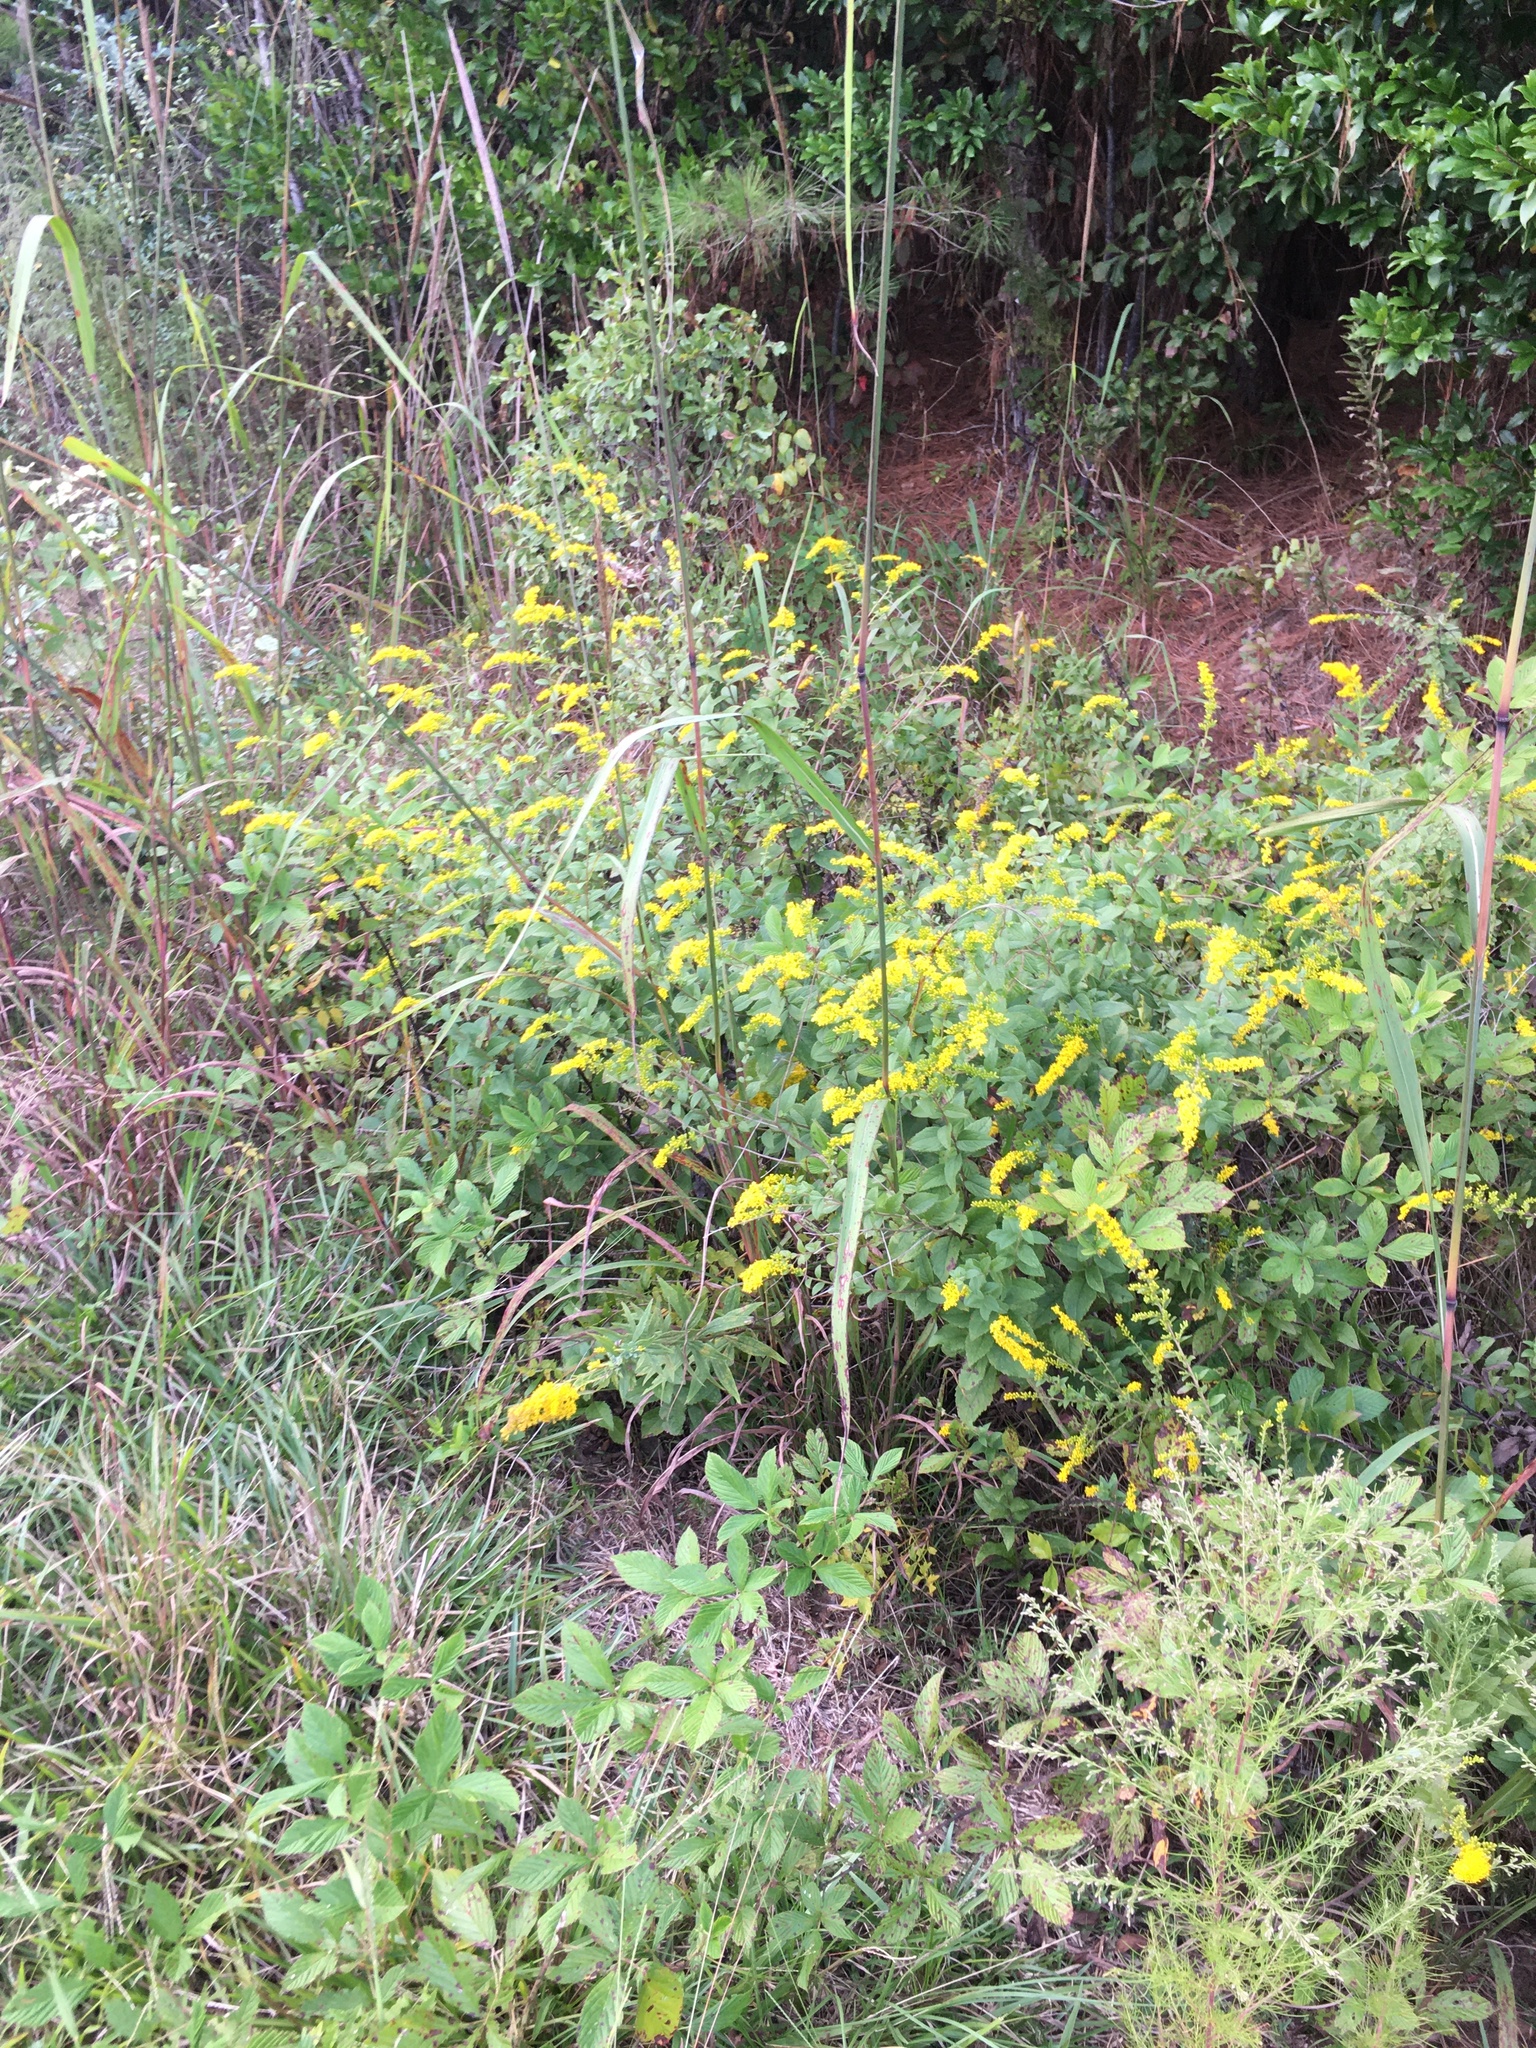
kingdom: Plantae
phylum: Tracheophyta
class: Magnoliopsida
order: Asterales
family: Asteraceae
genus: Solidago
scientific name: Solidago rugosa
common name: Rough-stemmed goldenrod
